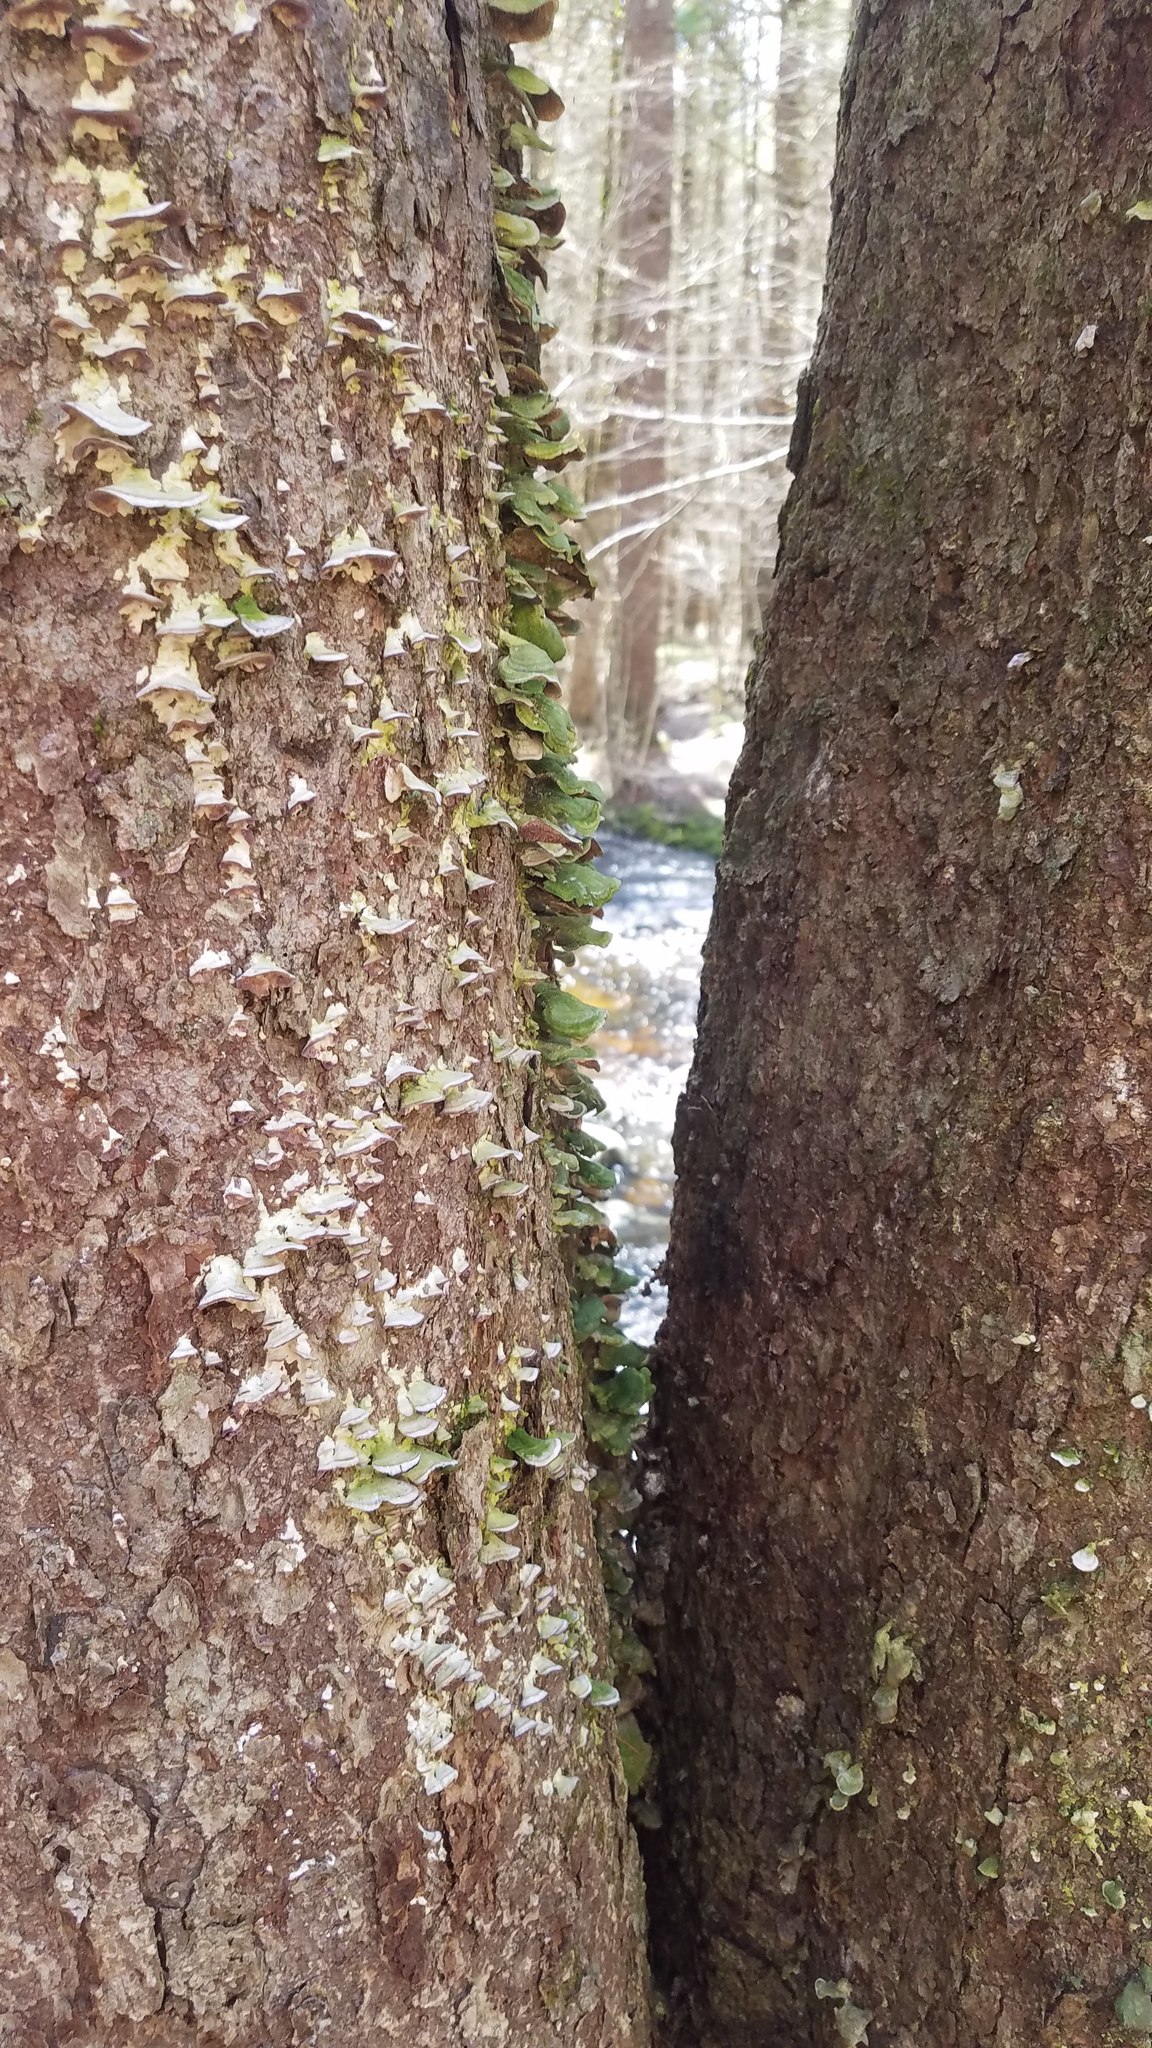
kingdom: Fungi
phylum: Basidiomycota
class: Agaricomycetes
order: Hymenochaetales
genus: Trichaptum
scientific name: Trichaptum biforme
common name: Violet-toothed polypore
